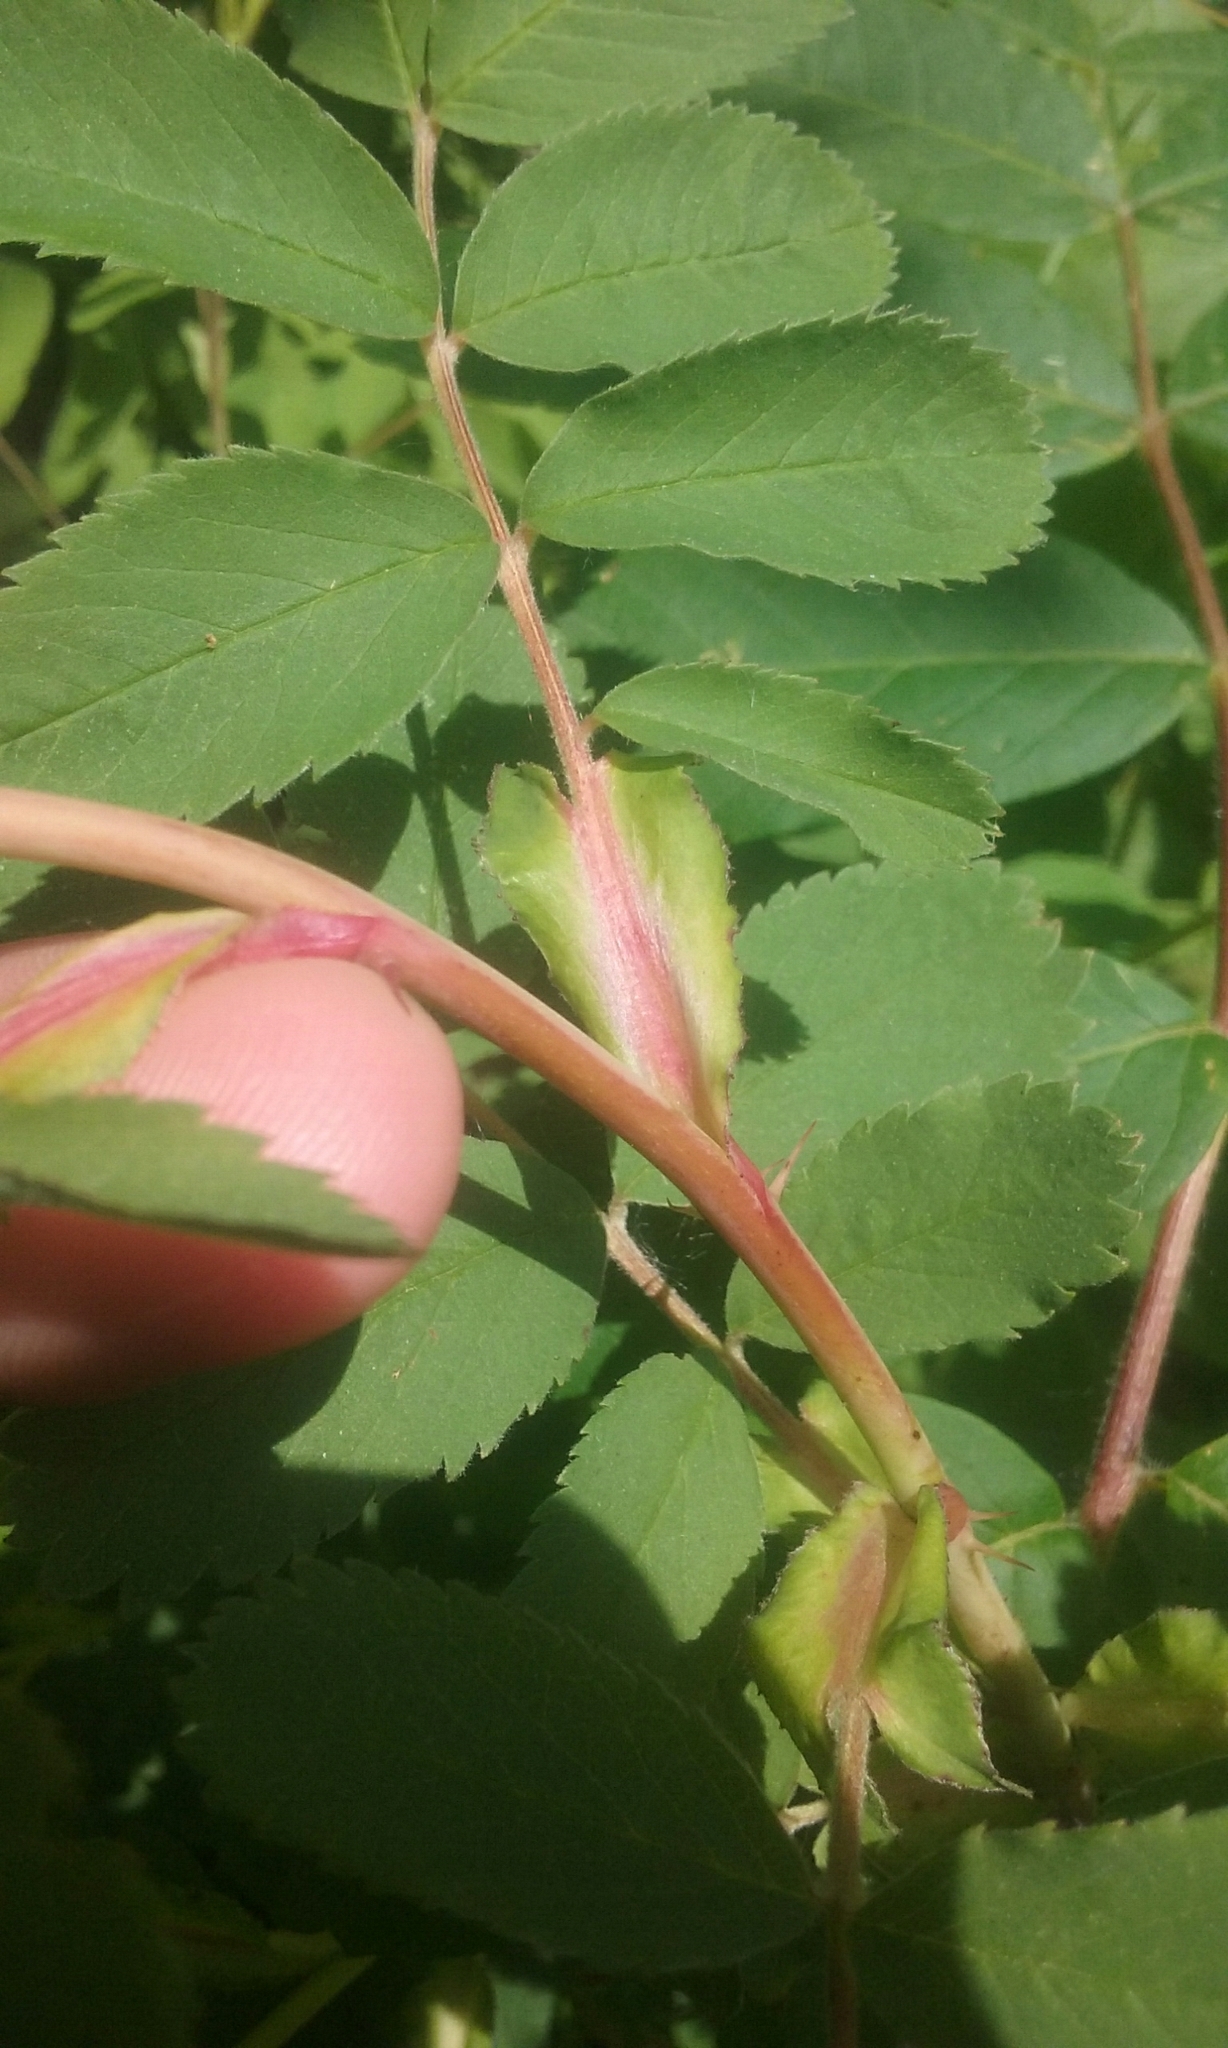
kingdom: Plantae
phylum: Tracheophyta
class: Magnoliopsida
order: Rosales
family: Rosaceae
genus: Rosa
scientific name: Rosa woodsii
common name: Woods's rose
